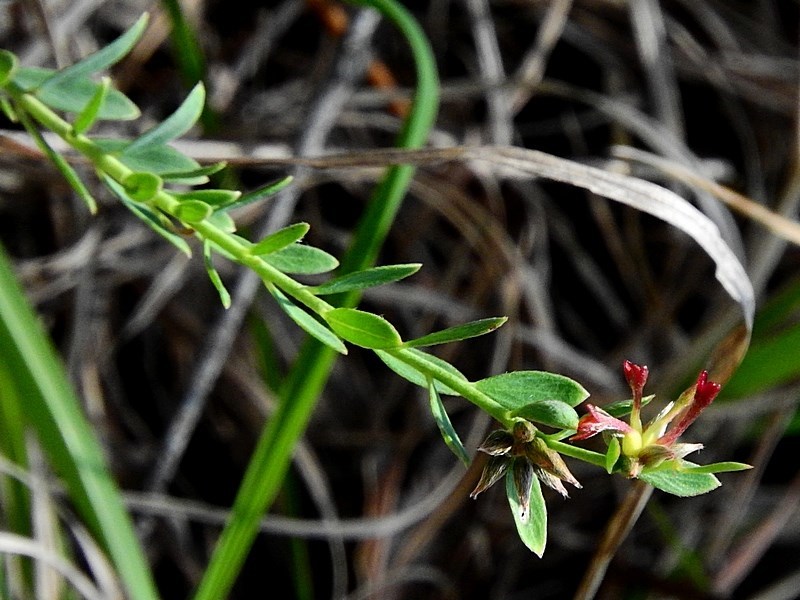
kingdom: Plantae
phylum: Tracheophyta
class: Magnoliopsida
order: Malvales
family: Thymelaeaceae
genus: Pimelea
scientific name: Pimelea curviflora
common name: Curved riceflower
